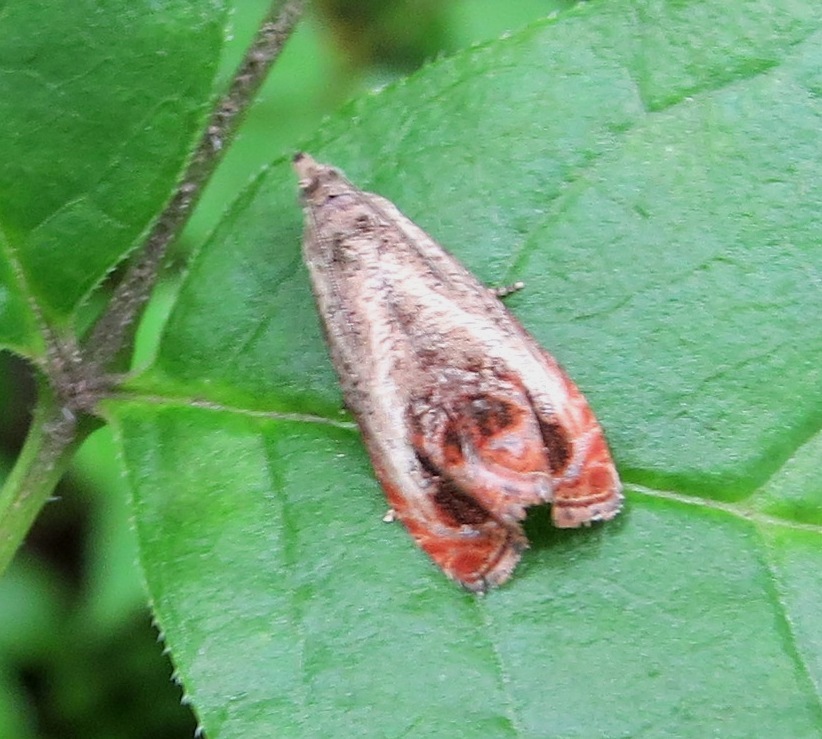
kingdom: Animalia
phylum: Arthropoda
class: Insecta
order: Lepidoptera
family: Tortricidae
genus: Olethreutes
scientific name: Olethreutes hamameliana
